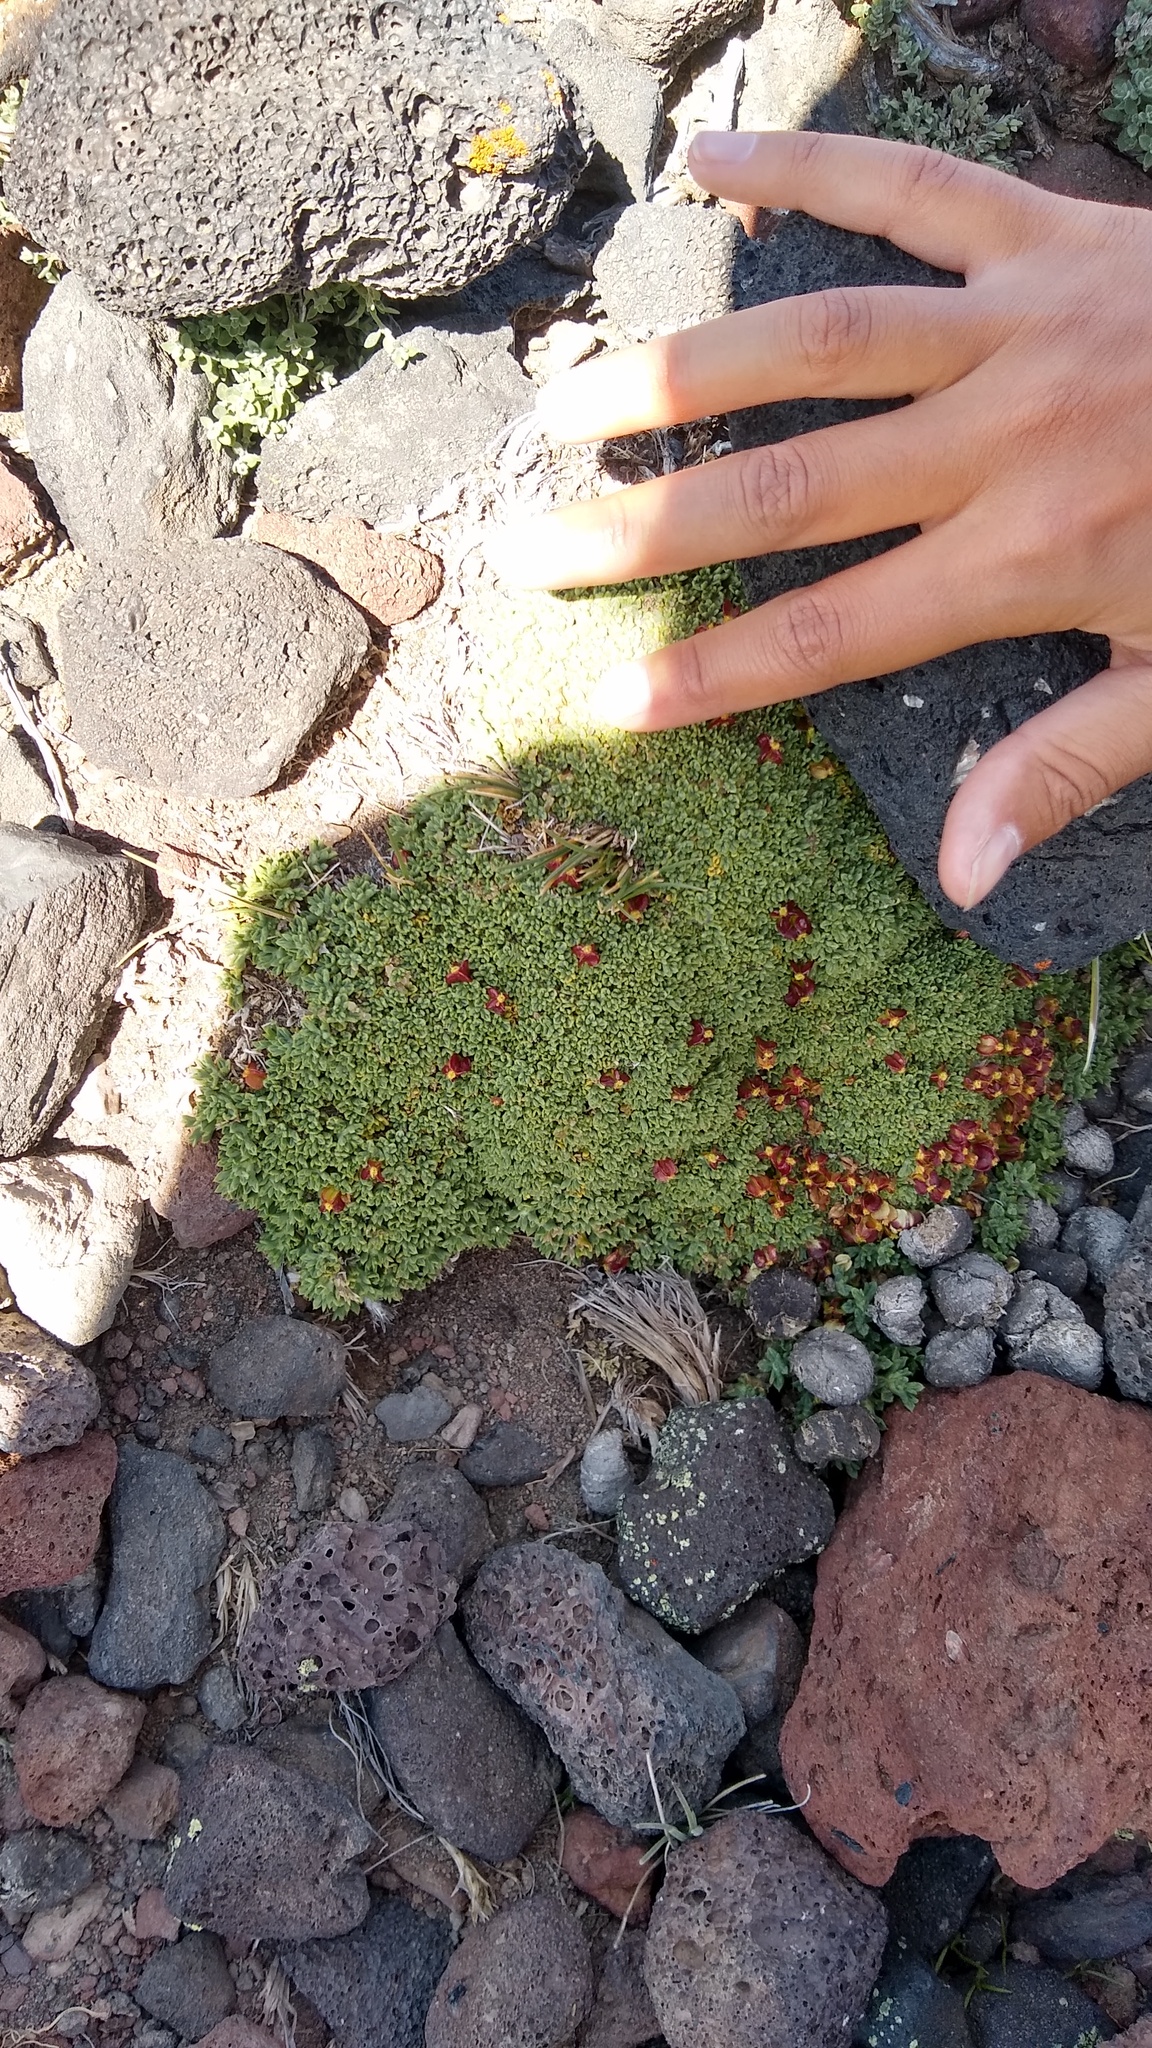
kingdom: Plantae
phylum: Tracheophyta
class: Magnoliopsida
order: Apiales
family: Apiaceae
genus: Azorella
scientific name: Azorella valentini
